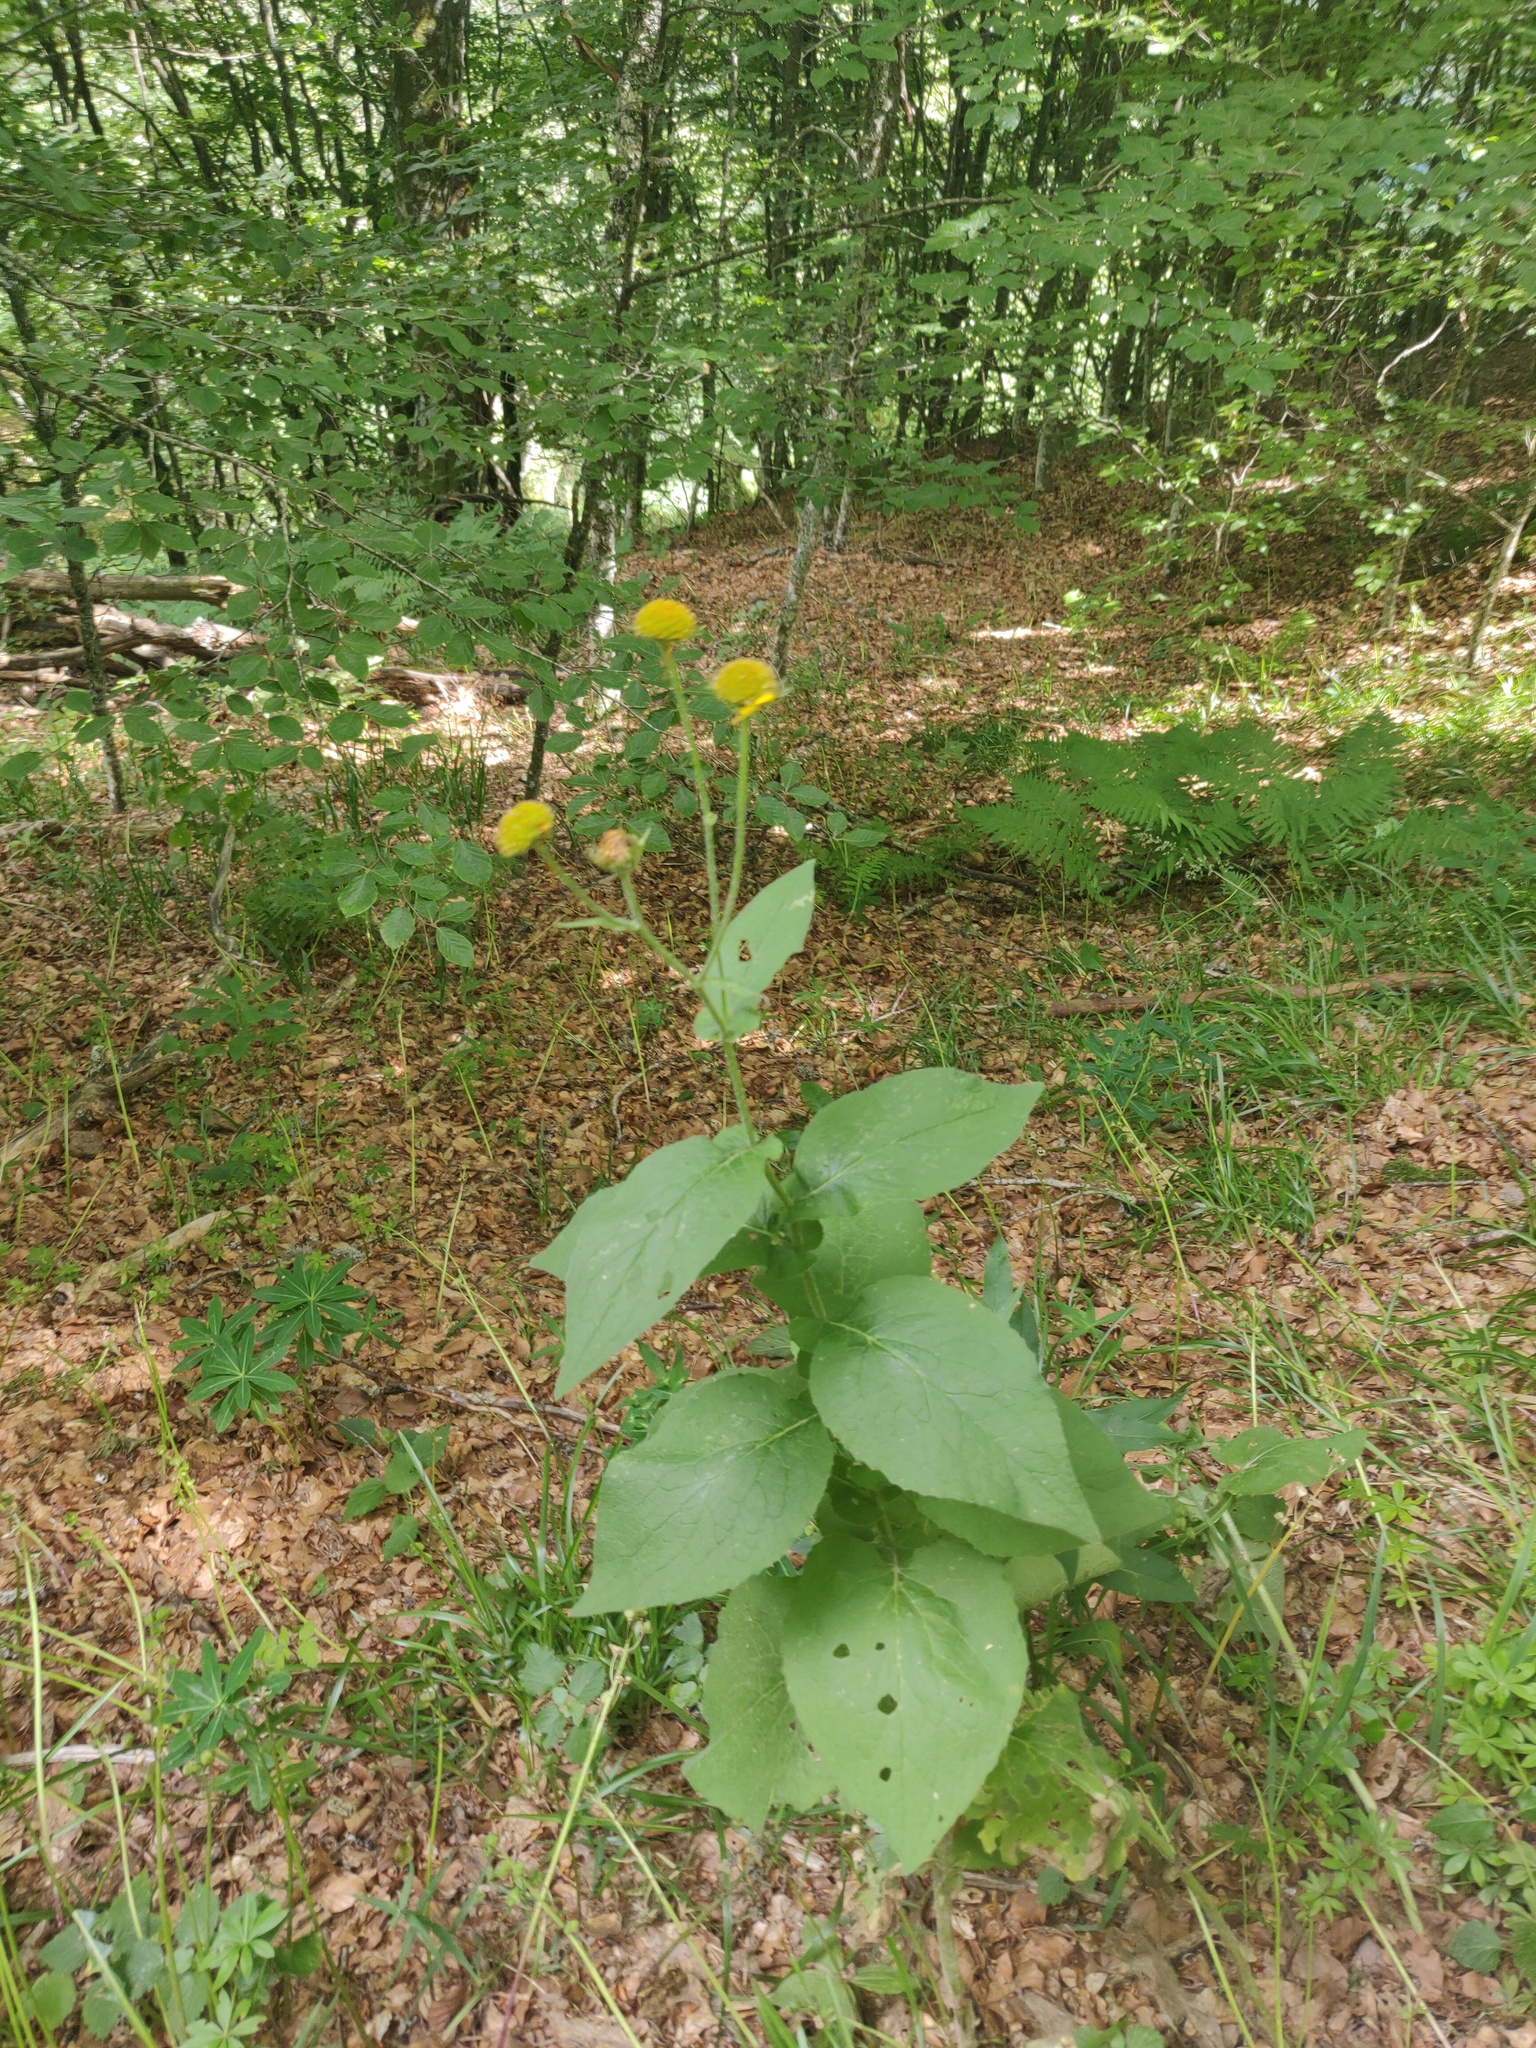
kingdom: Plantae
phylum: Tracheophyta
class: Magnoliopsida
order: Asterales
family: Asteraceae
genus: Doronicum
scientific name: Doronicum austriacum
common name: Austrian leopard's-bane
